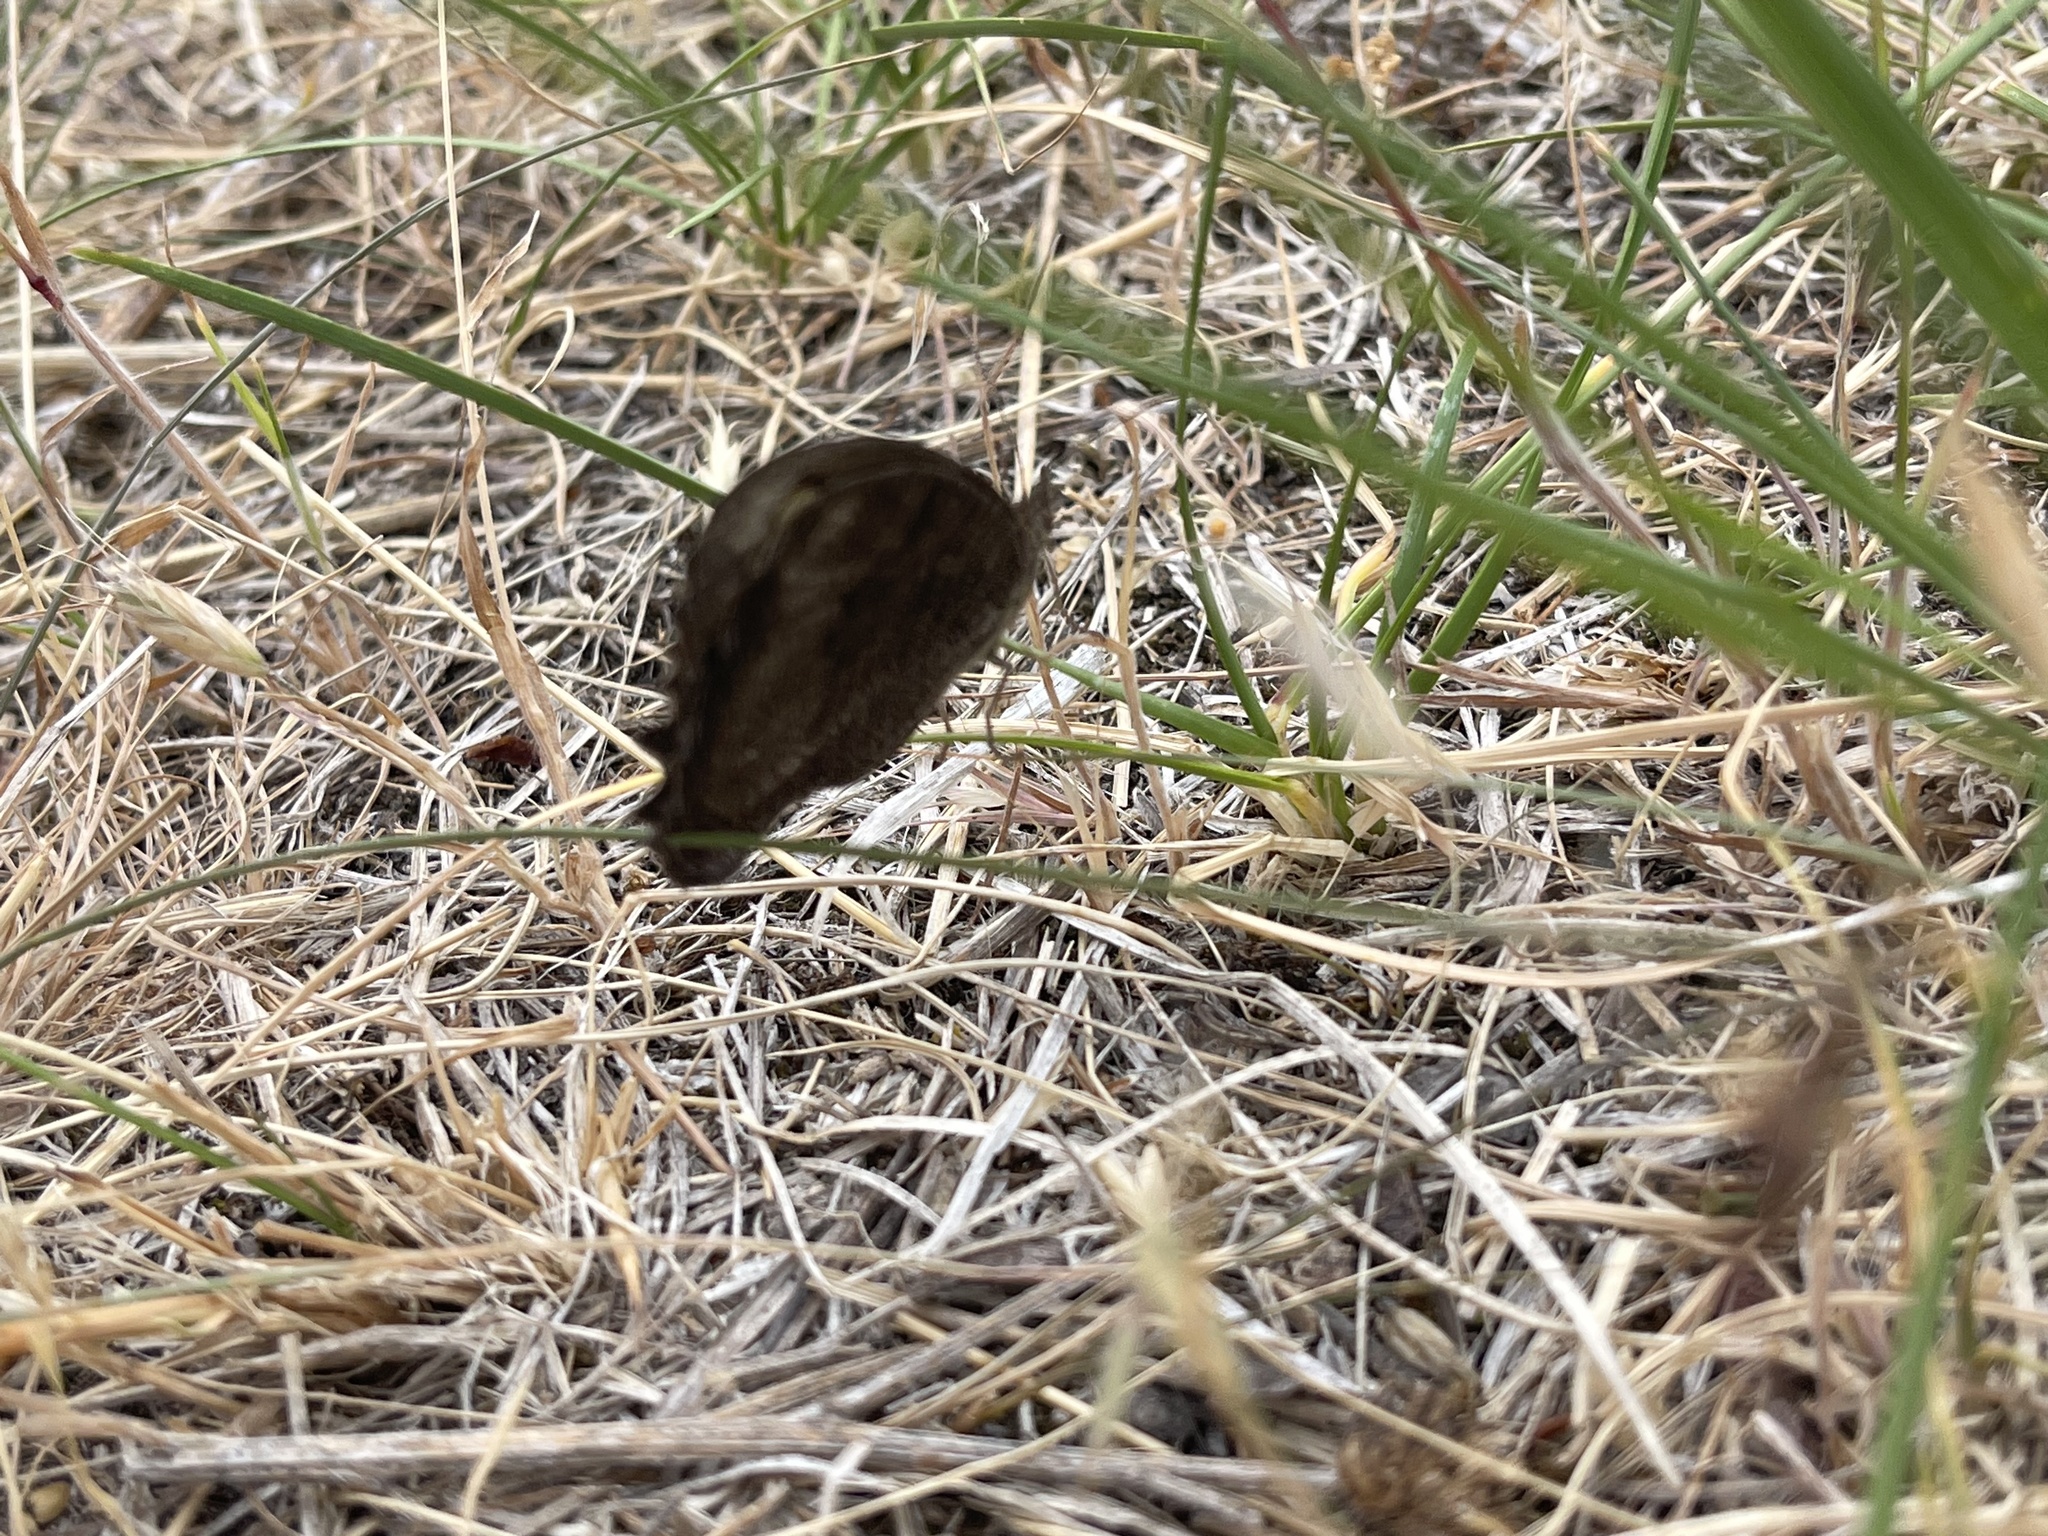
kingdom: Animalia
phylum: Arthropoda
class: Insecta
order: Lepidoptera
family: Nymphalidae
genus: Cercyonis
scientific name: Cercyonis pegala
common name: Common wood-nymph
